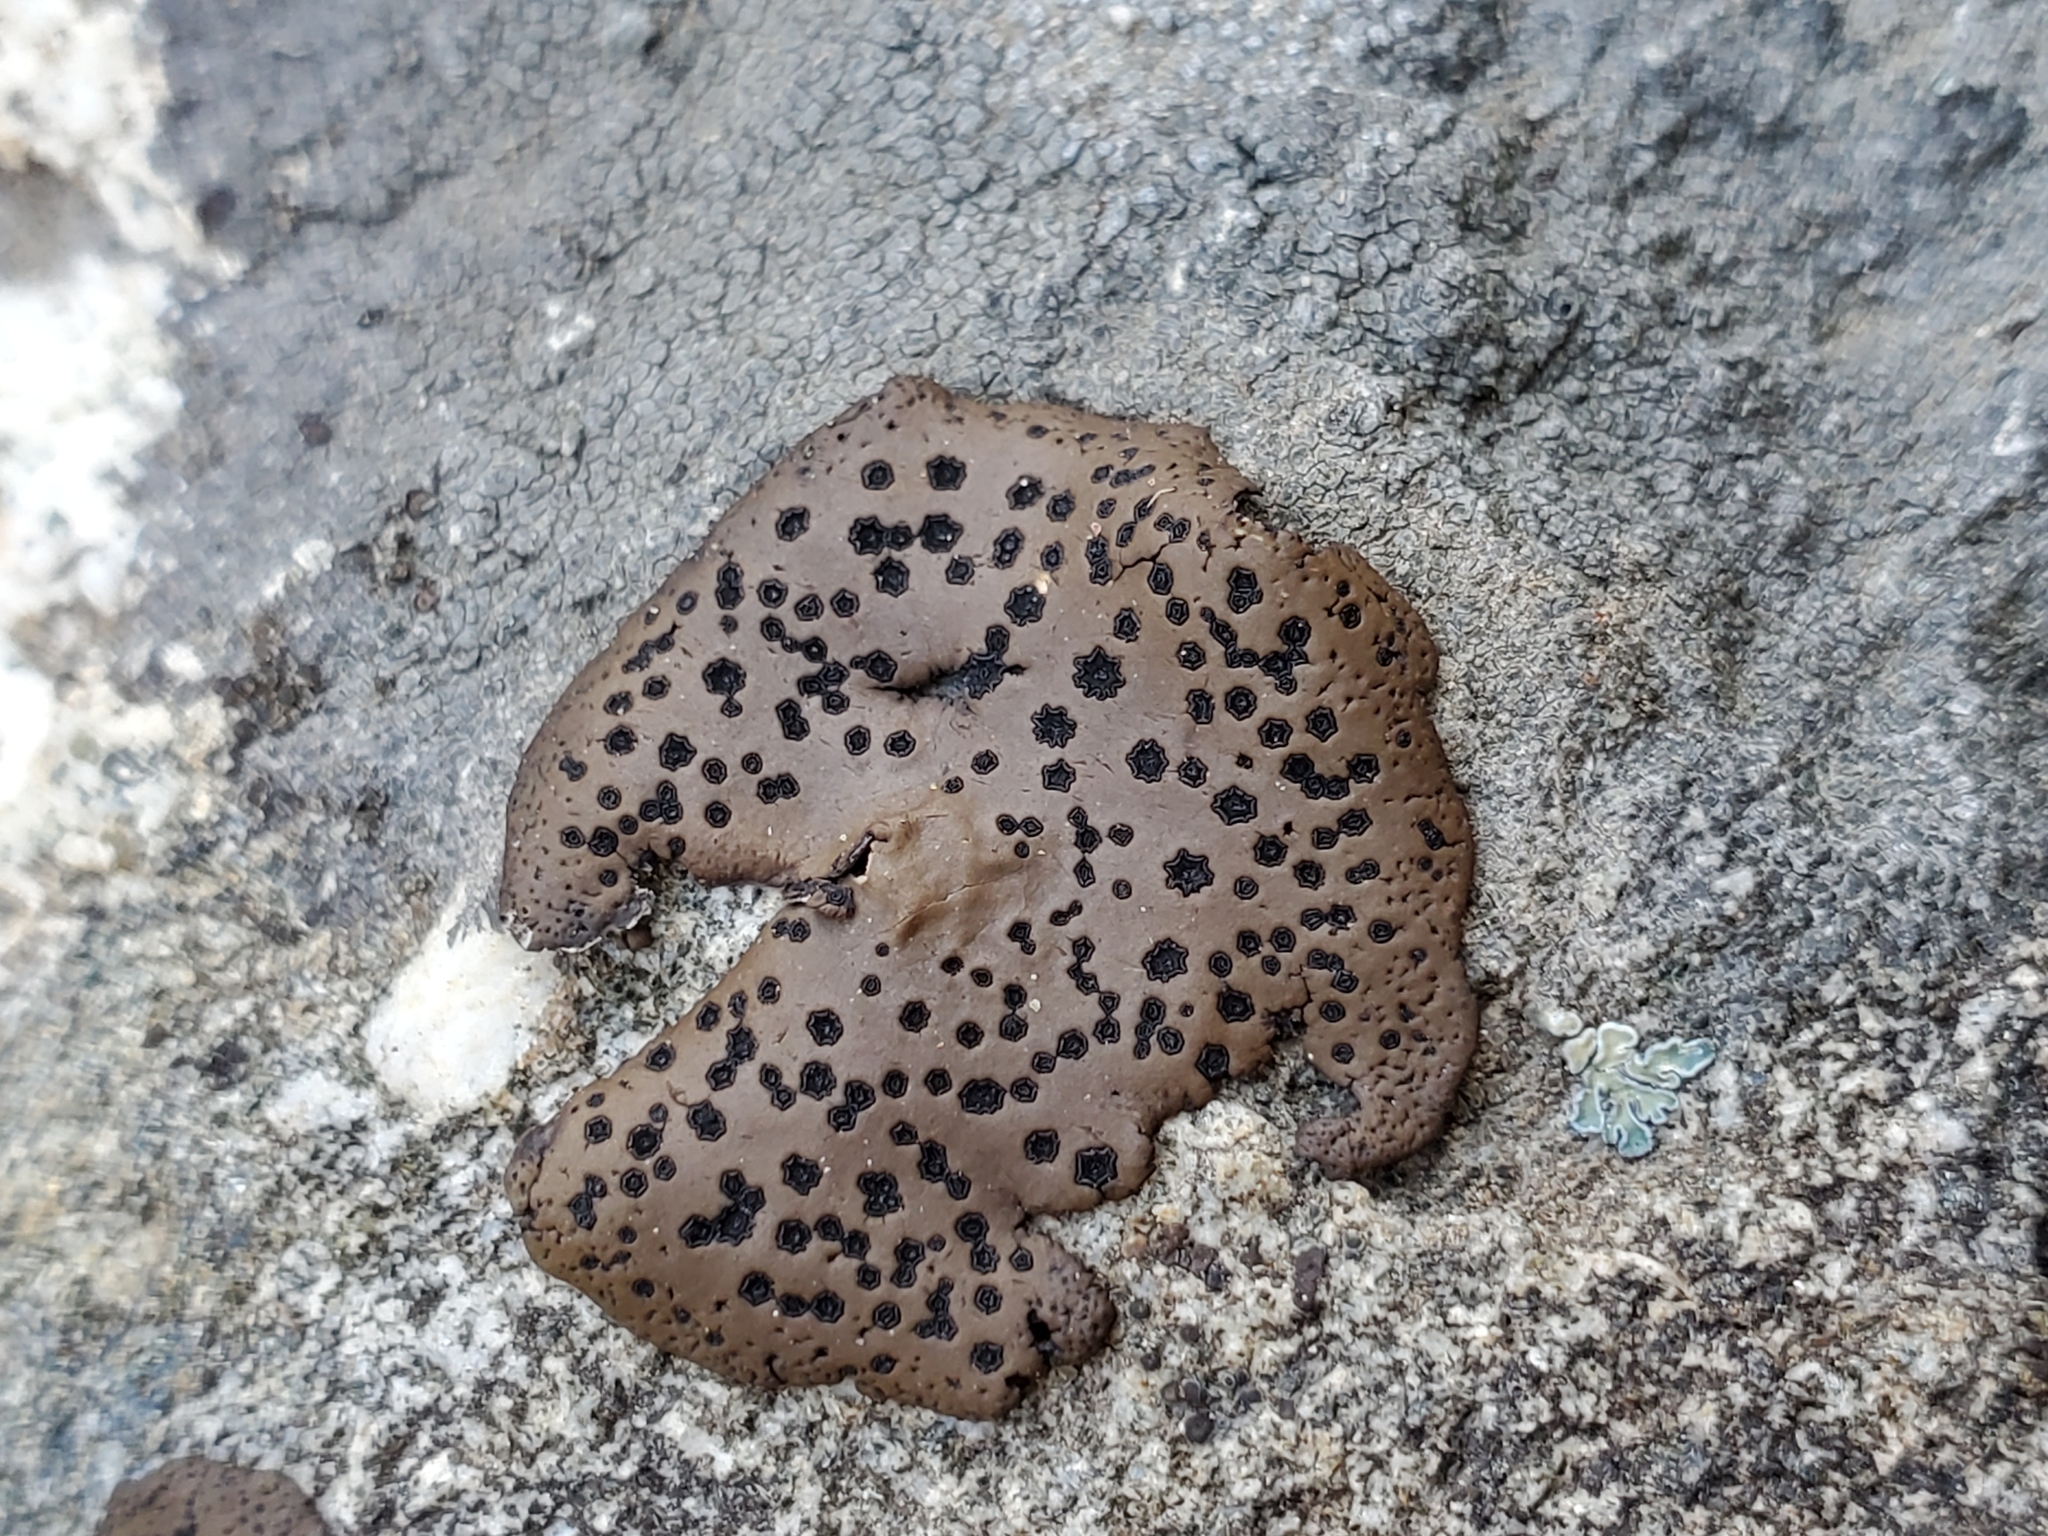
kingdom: Fungi
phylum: Ascomycota
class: Lecanoromycetes
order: Umbilicariales
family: Umbilicariaceae
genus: Umbilicaria
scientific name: Umbilicaria phaea
